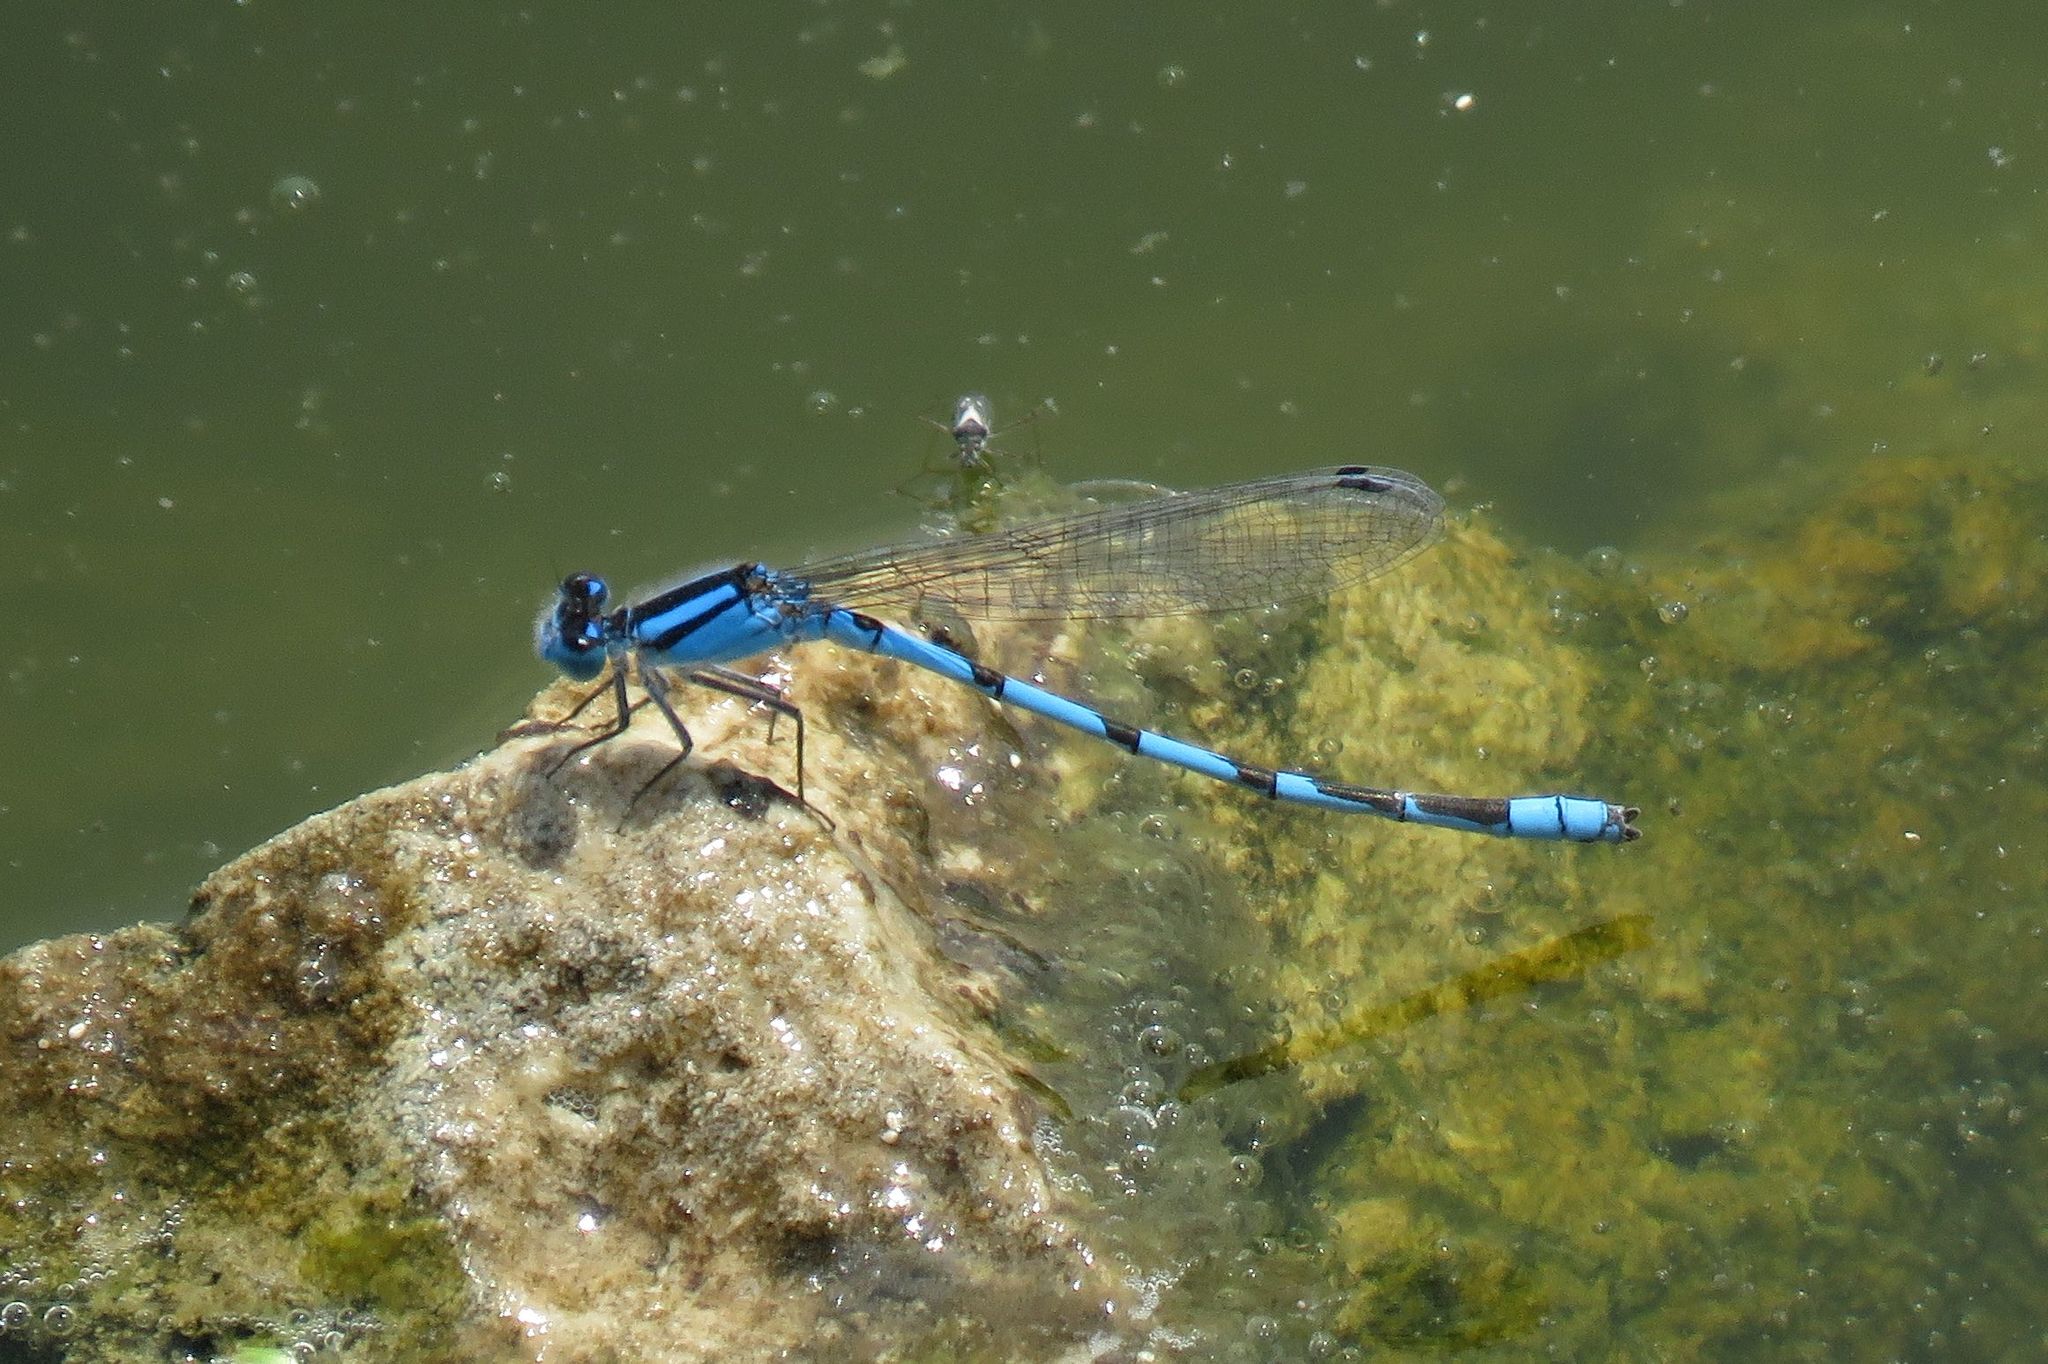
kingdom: Animalia
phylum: Arthropoda
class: Insecta
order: Odonata
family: Coenagrionidae
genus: Enallagma
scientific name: Enallagma civile
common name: Damselfly
